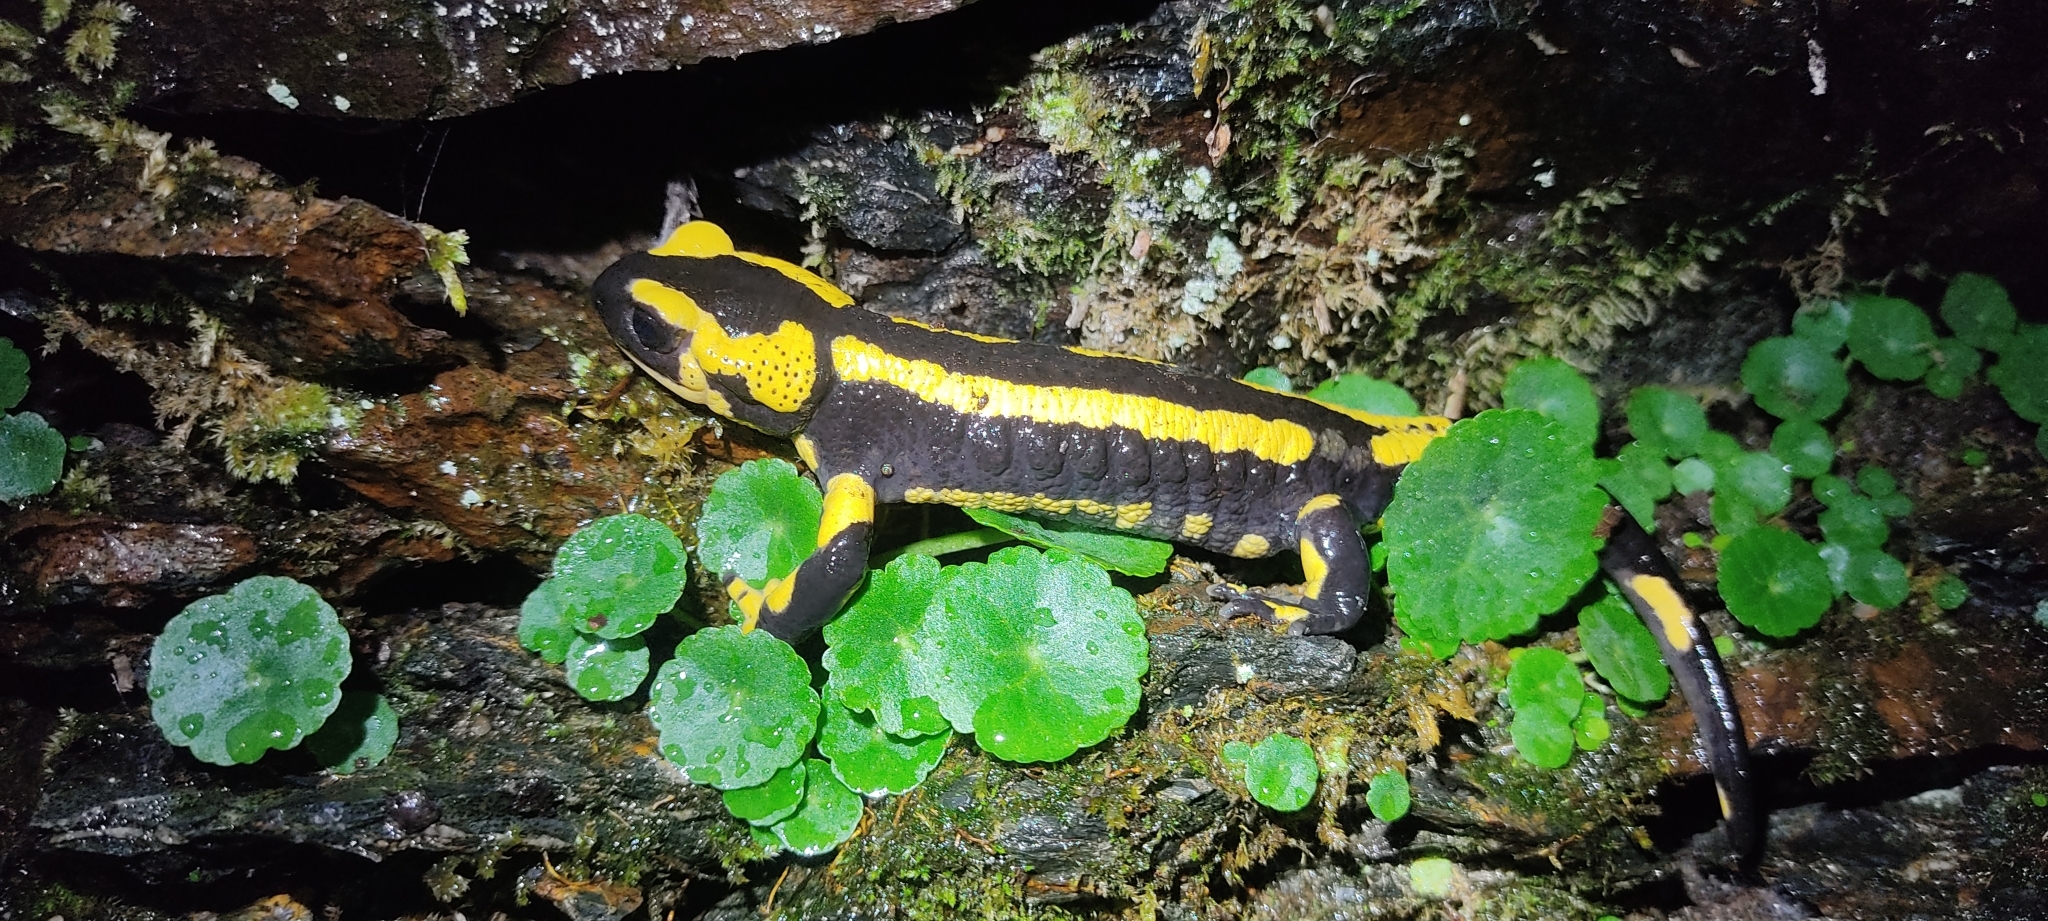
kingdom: Animalia
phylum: Chordata
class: Amphibia
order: Caudata
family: Salamandridae
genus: Salamandra
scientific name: Salamandra salamandra
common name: Fire salamander
